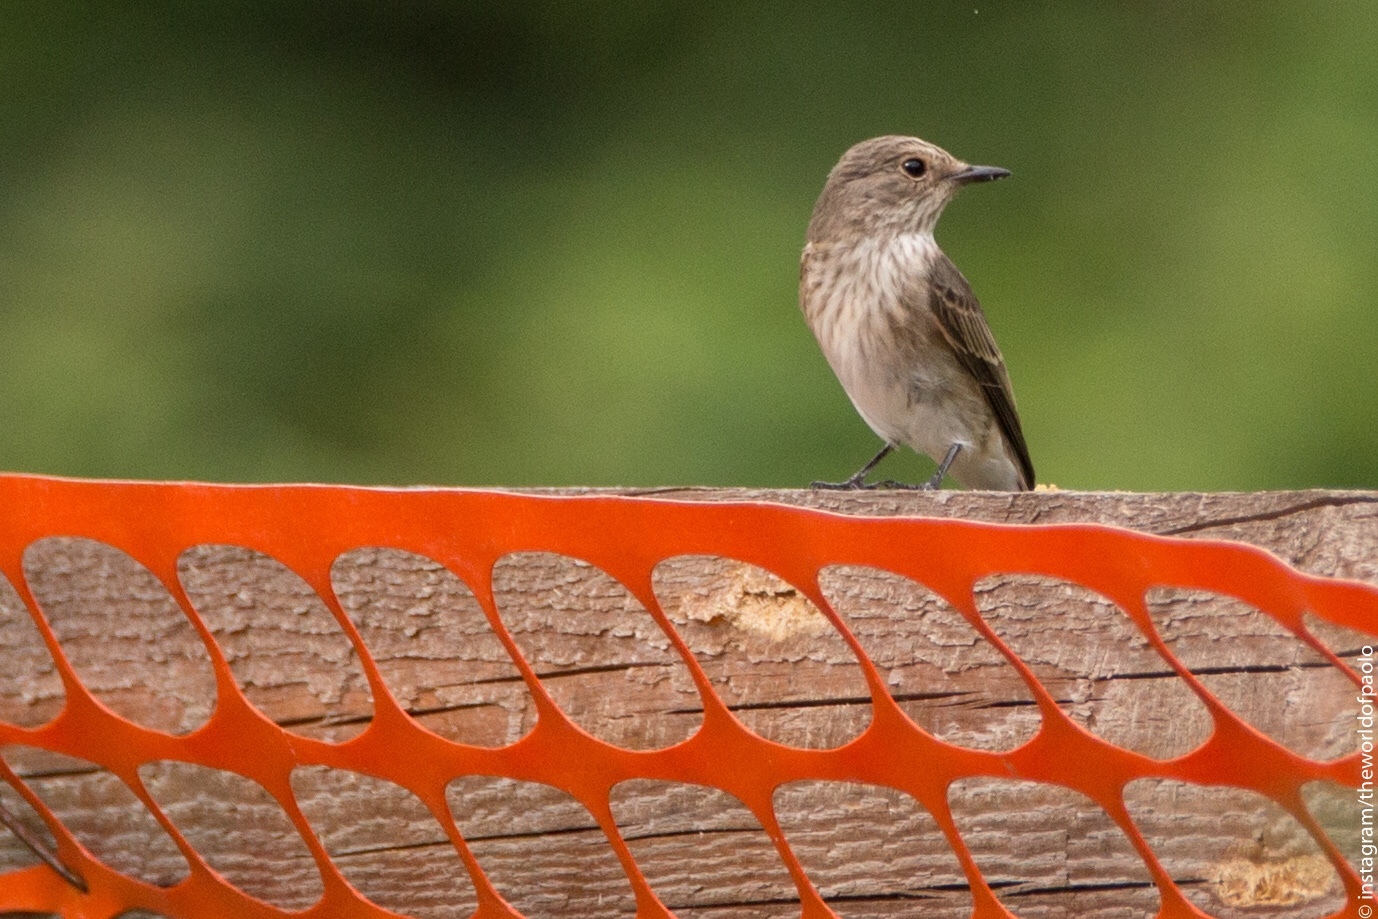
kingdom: Animalia
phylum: Chordata
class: Aves
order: Passeriformes
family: Muscicapidae
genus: Muscicapa
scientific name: Muscicapa striata
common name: Spotted flycatcher
